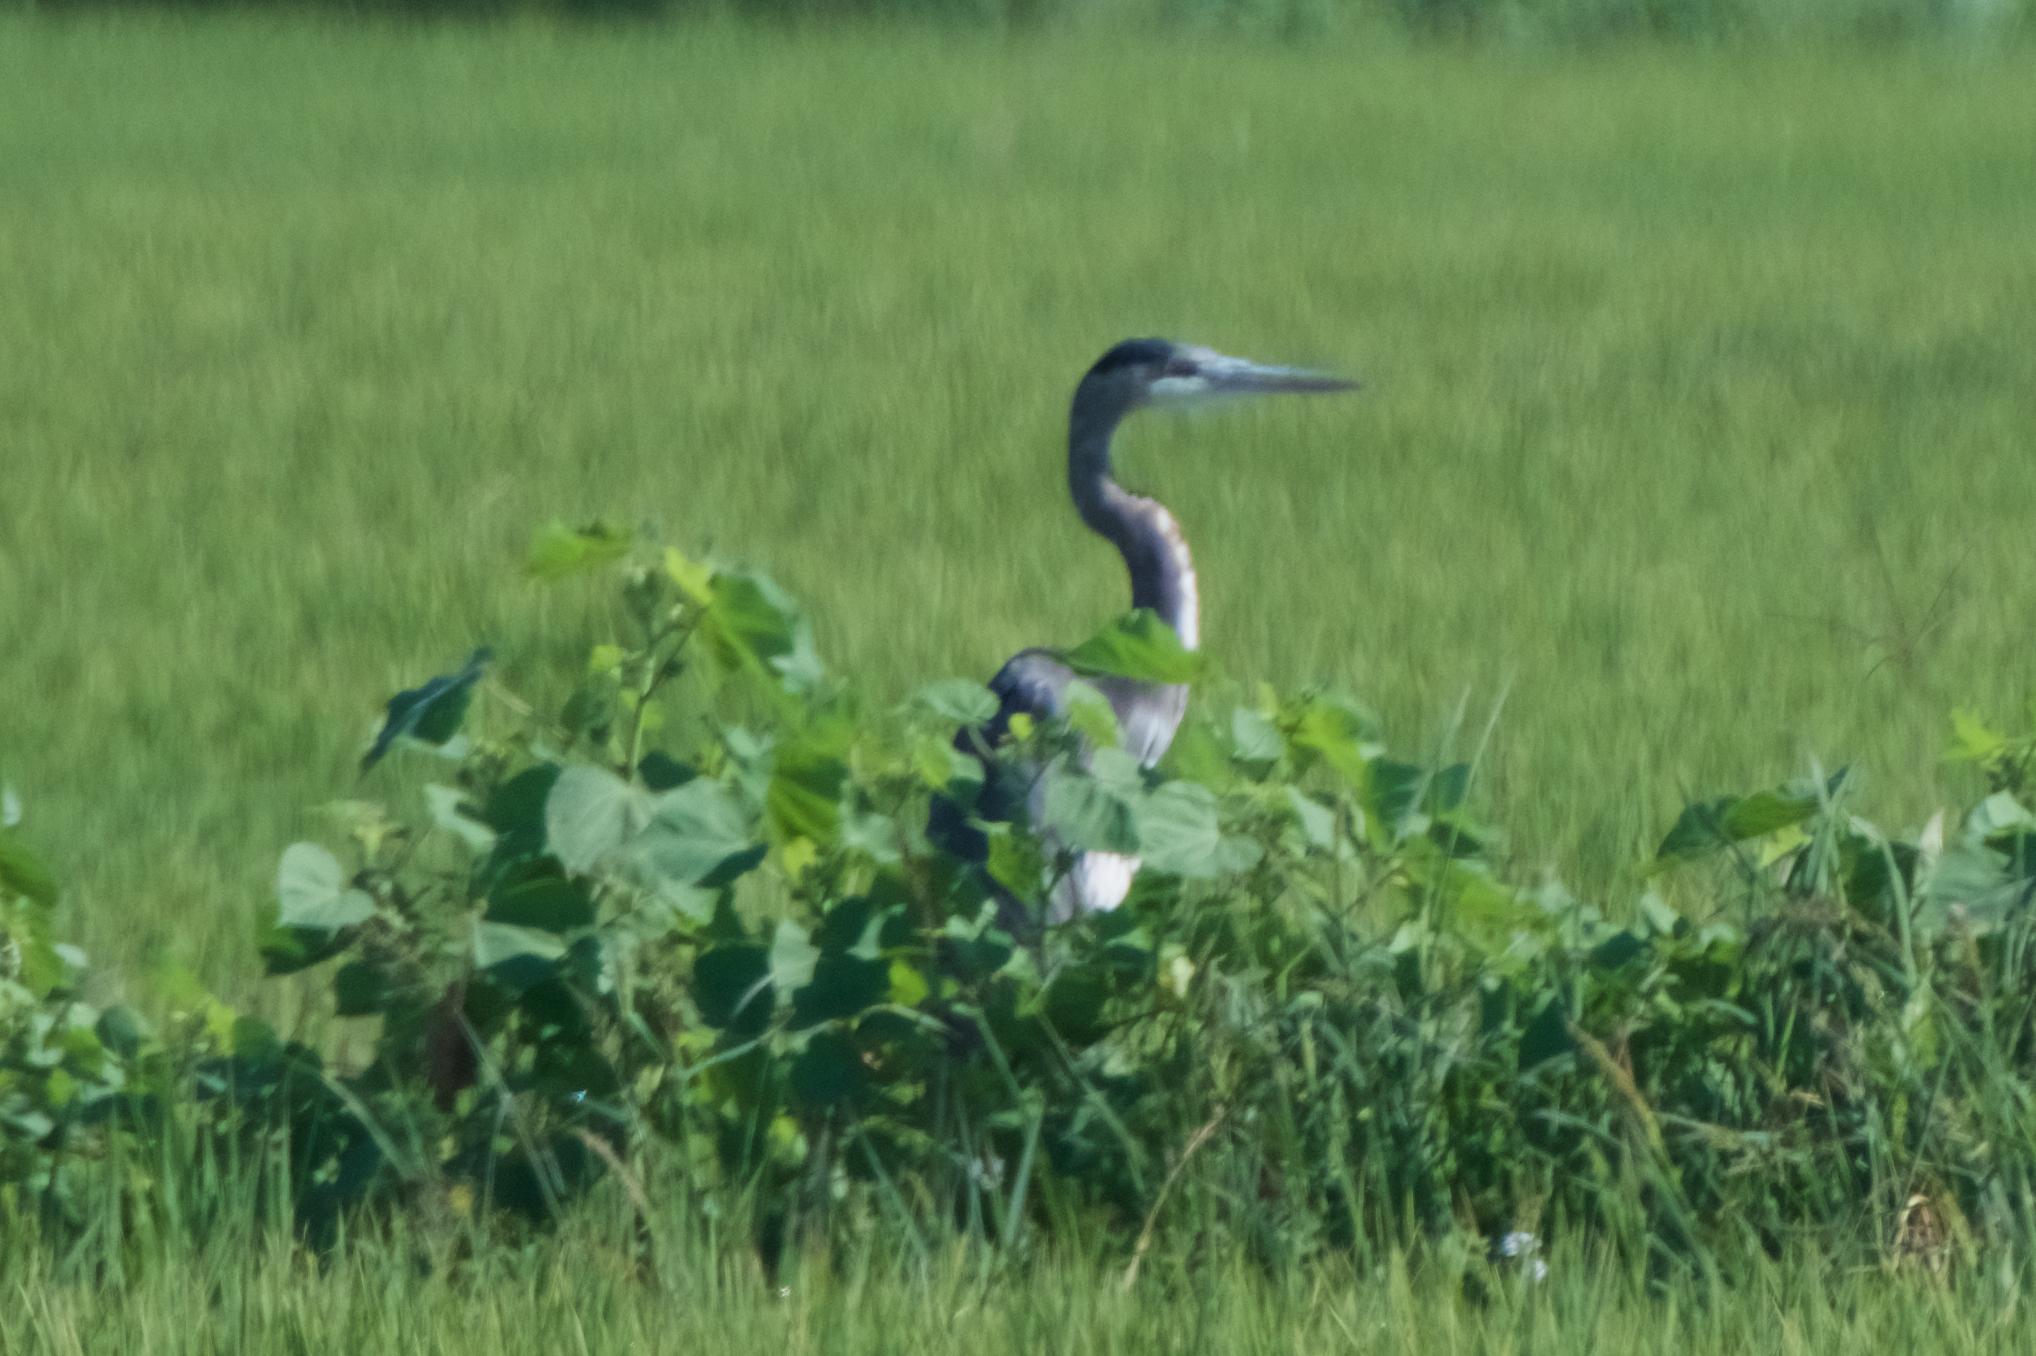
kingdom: Animalia
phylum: Chordata
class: Aves
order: Pelecaniformes
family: Ardeidae
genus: Ardea
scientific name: Ardea herodias
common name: Great blue heron
